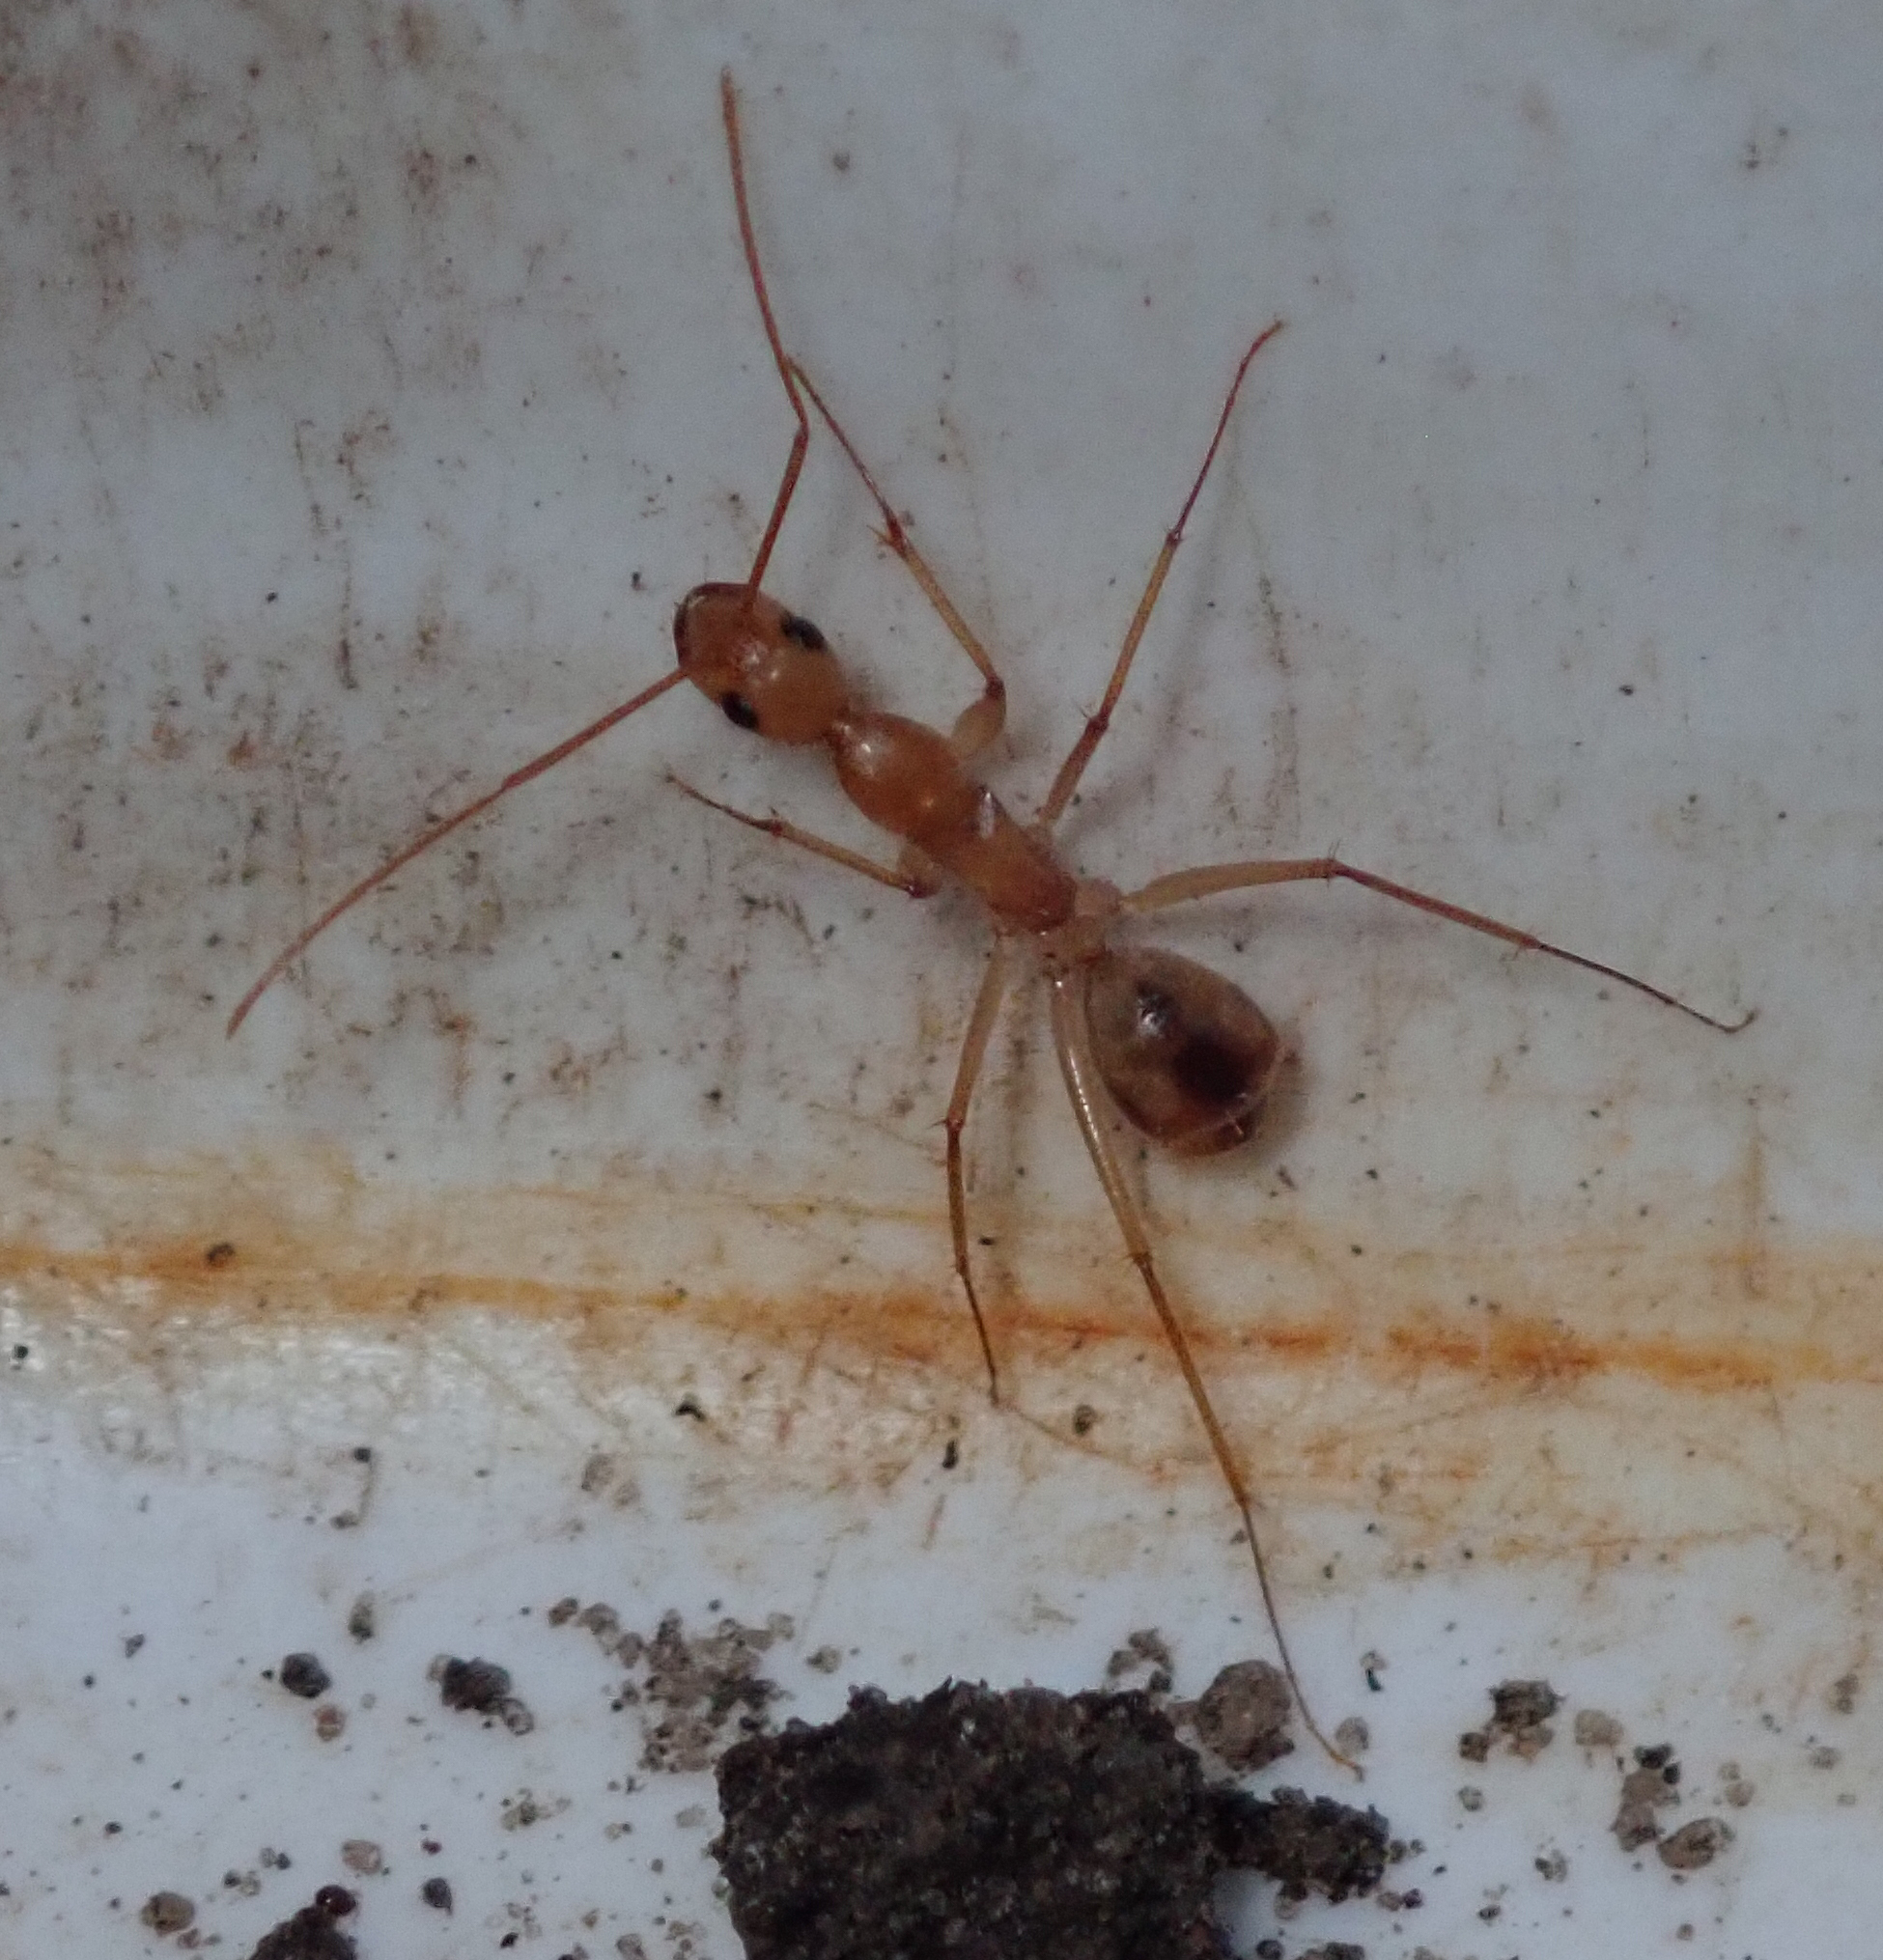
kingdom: Animalia
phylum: Arthropoda
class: Insecta
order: Hymenoptera
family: Formicidae
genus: Camponotus
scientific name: Camponotus mystaceus
